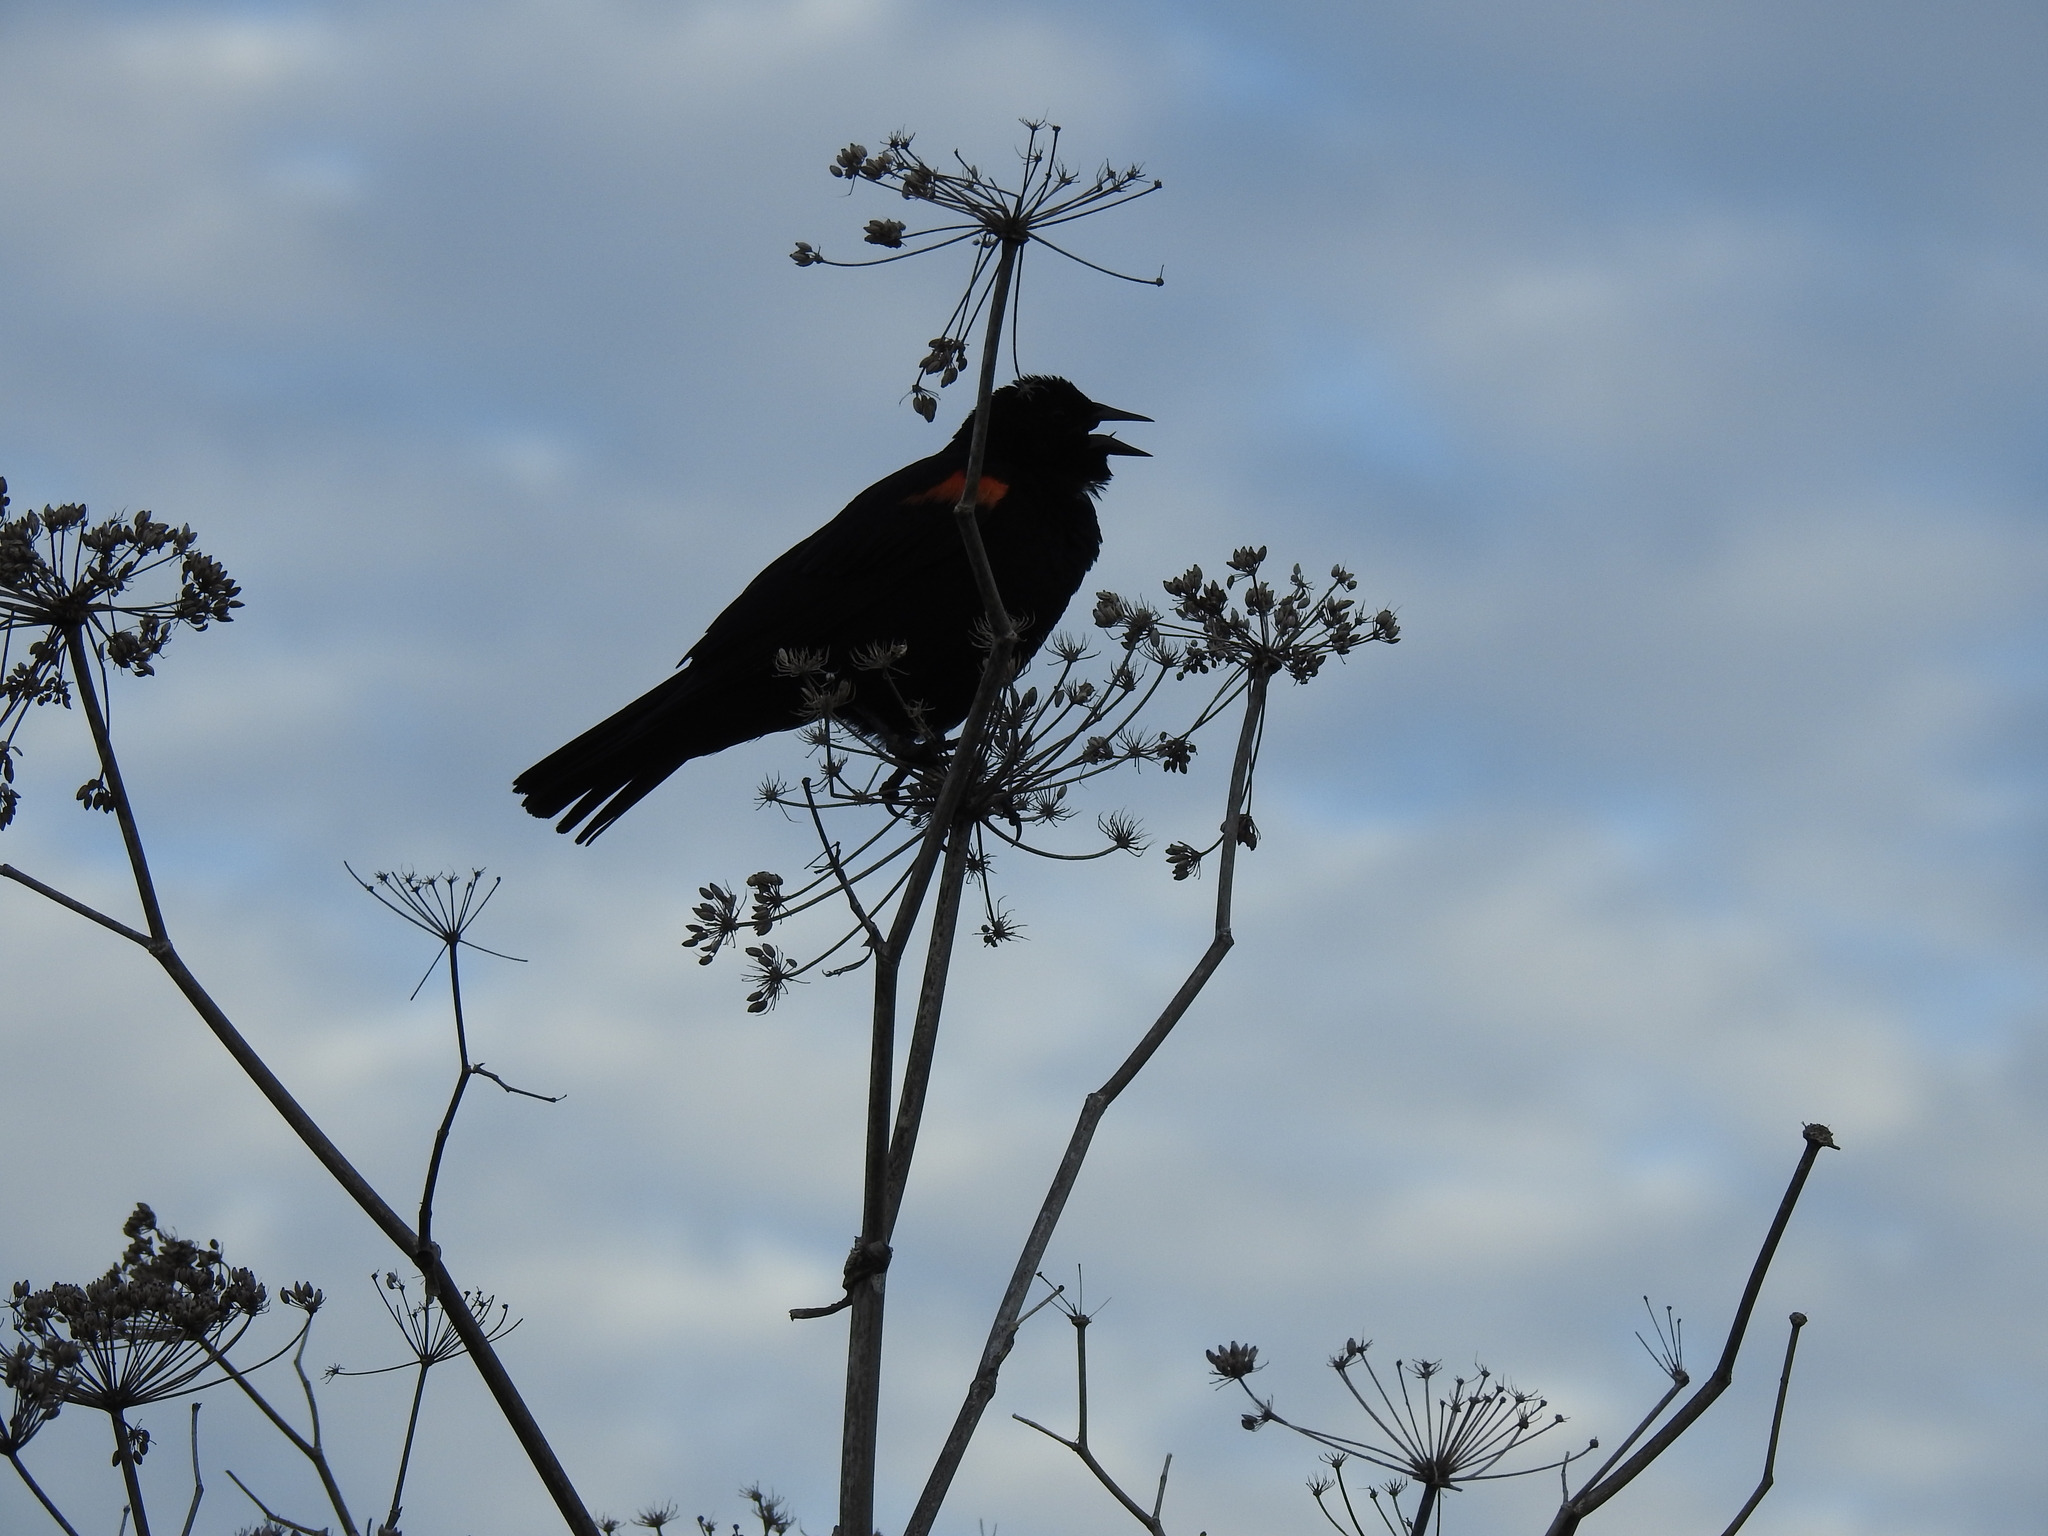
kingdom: Animalia
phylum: Chordata
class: Aves
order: Passeriformes
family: Icteridae
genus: Agelaius
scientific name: Agelaius phoeniceus
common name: Red-winged blackbird
